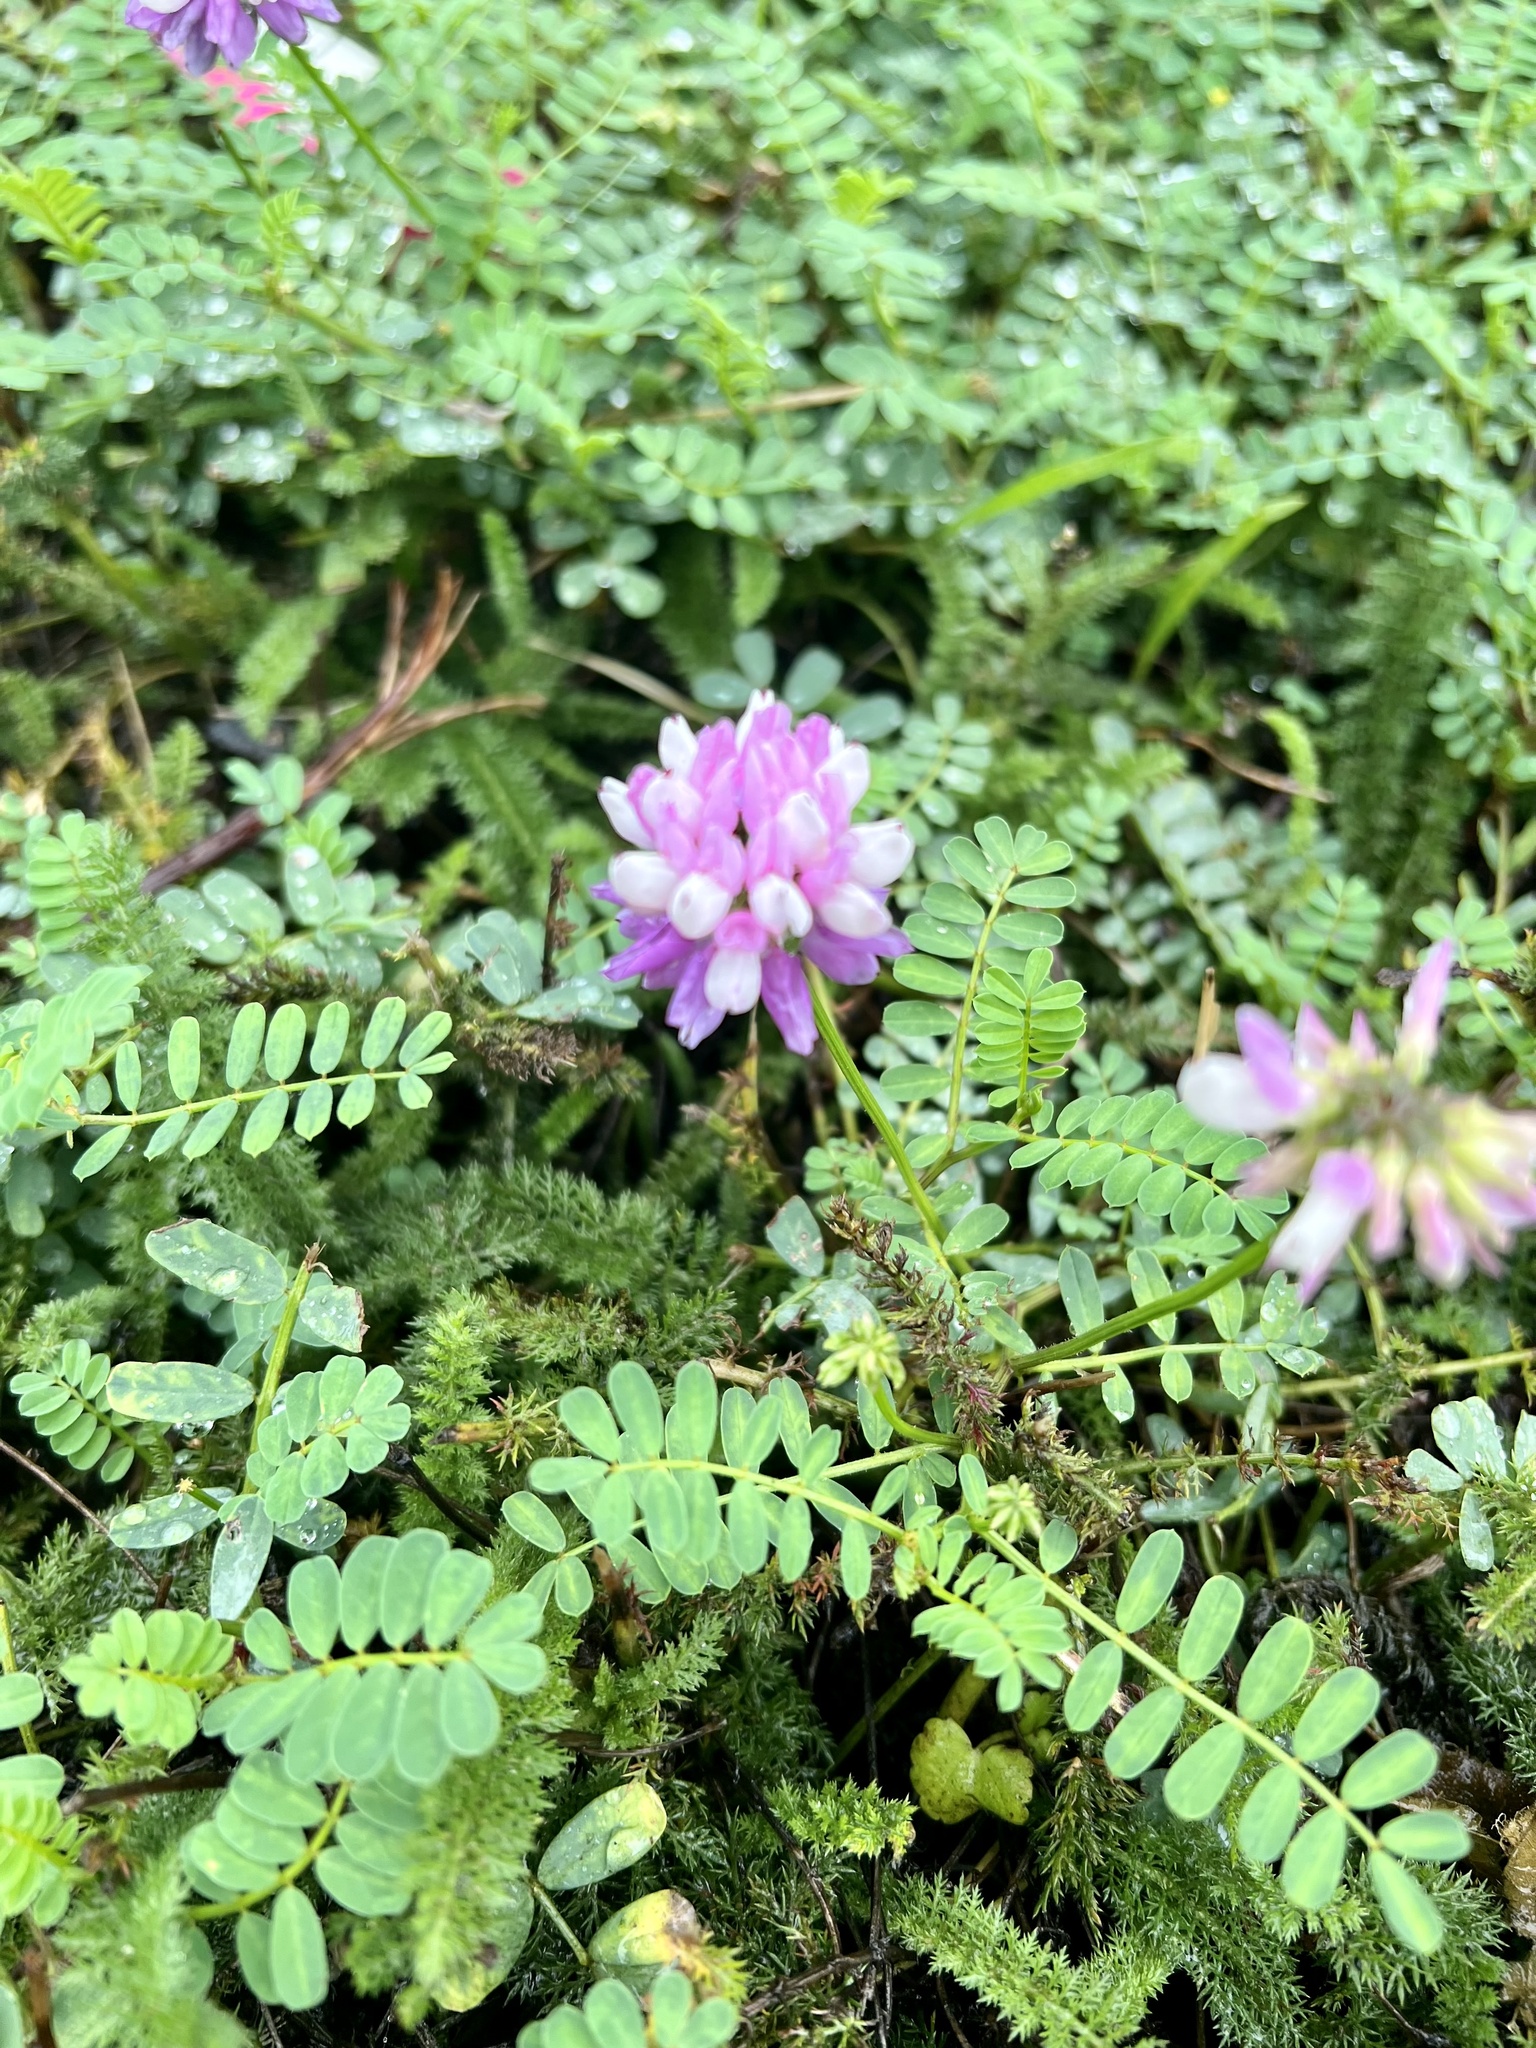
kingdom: Plantae
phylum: Tracheophyta
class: Magnoliopsida
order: Fabales
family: Fabaceae
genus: Coronilla
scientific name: Coronilla varia
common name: Crownvetch
